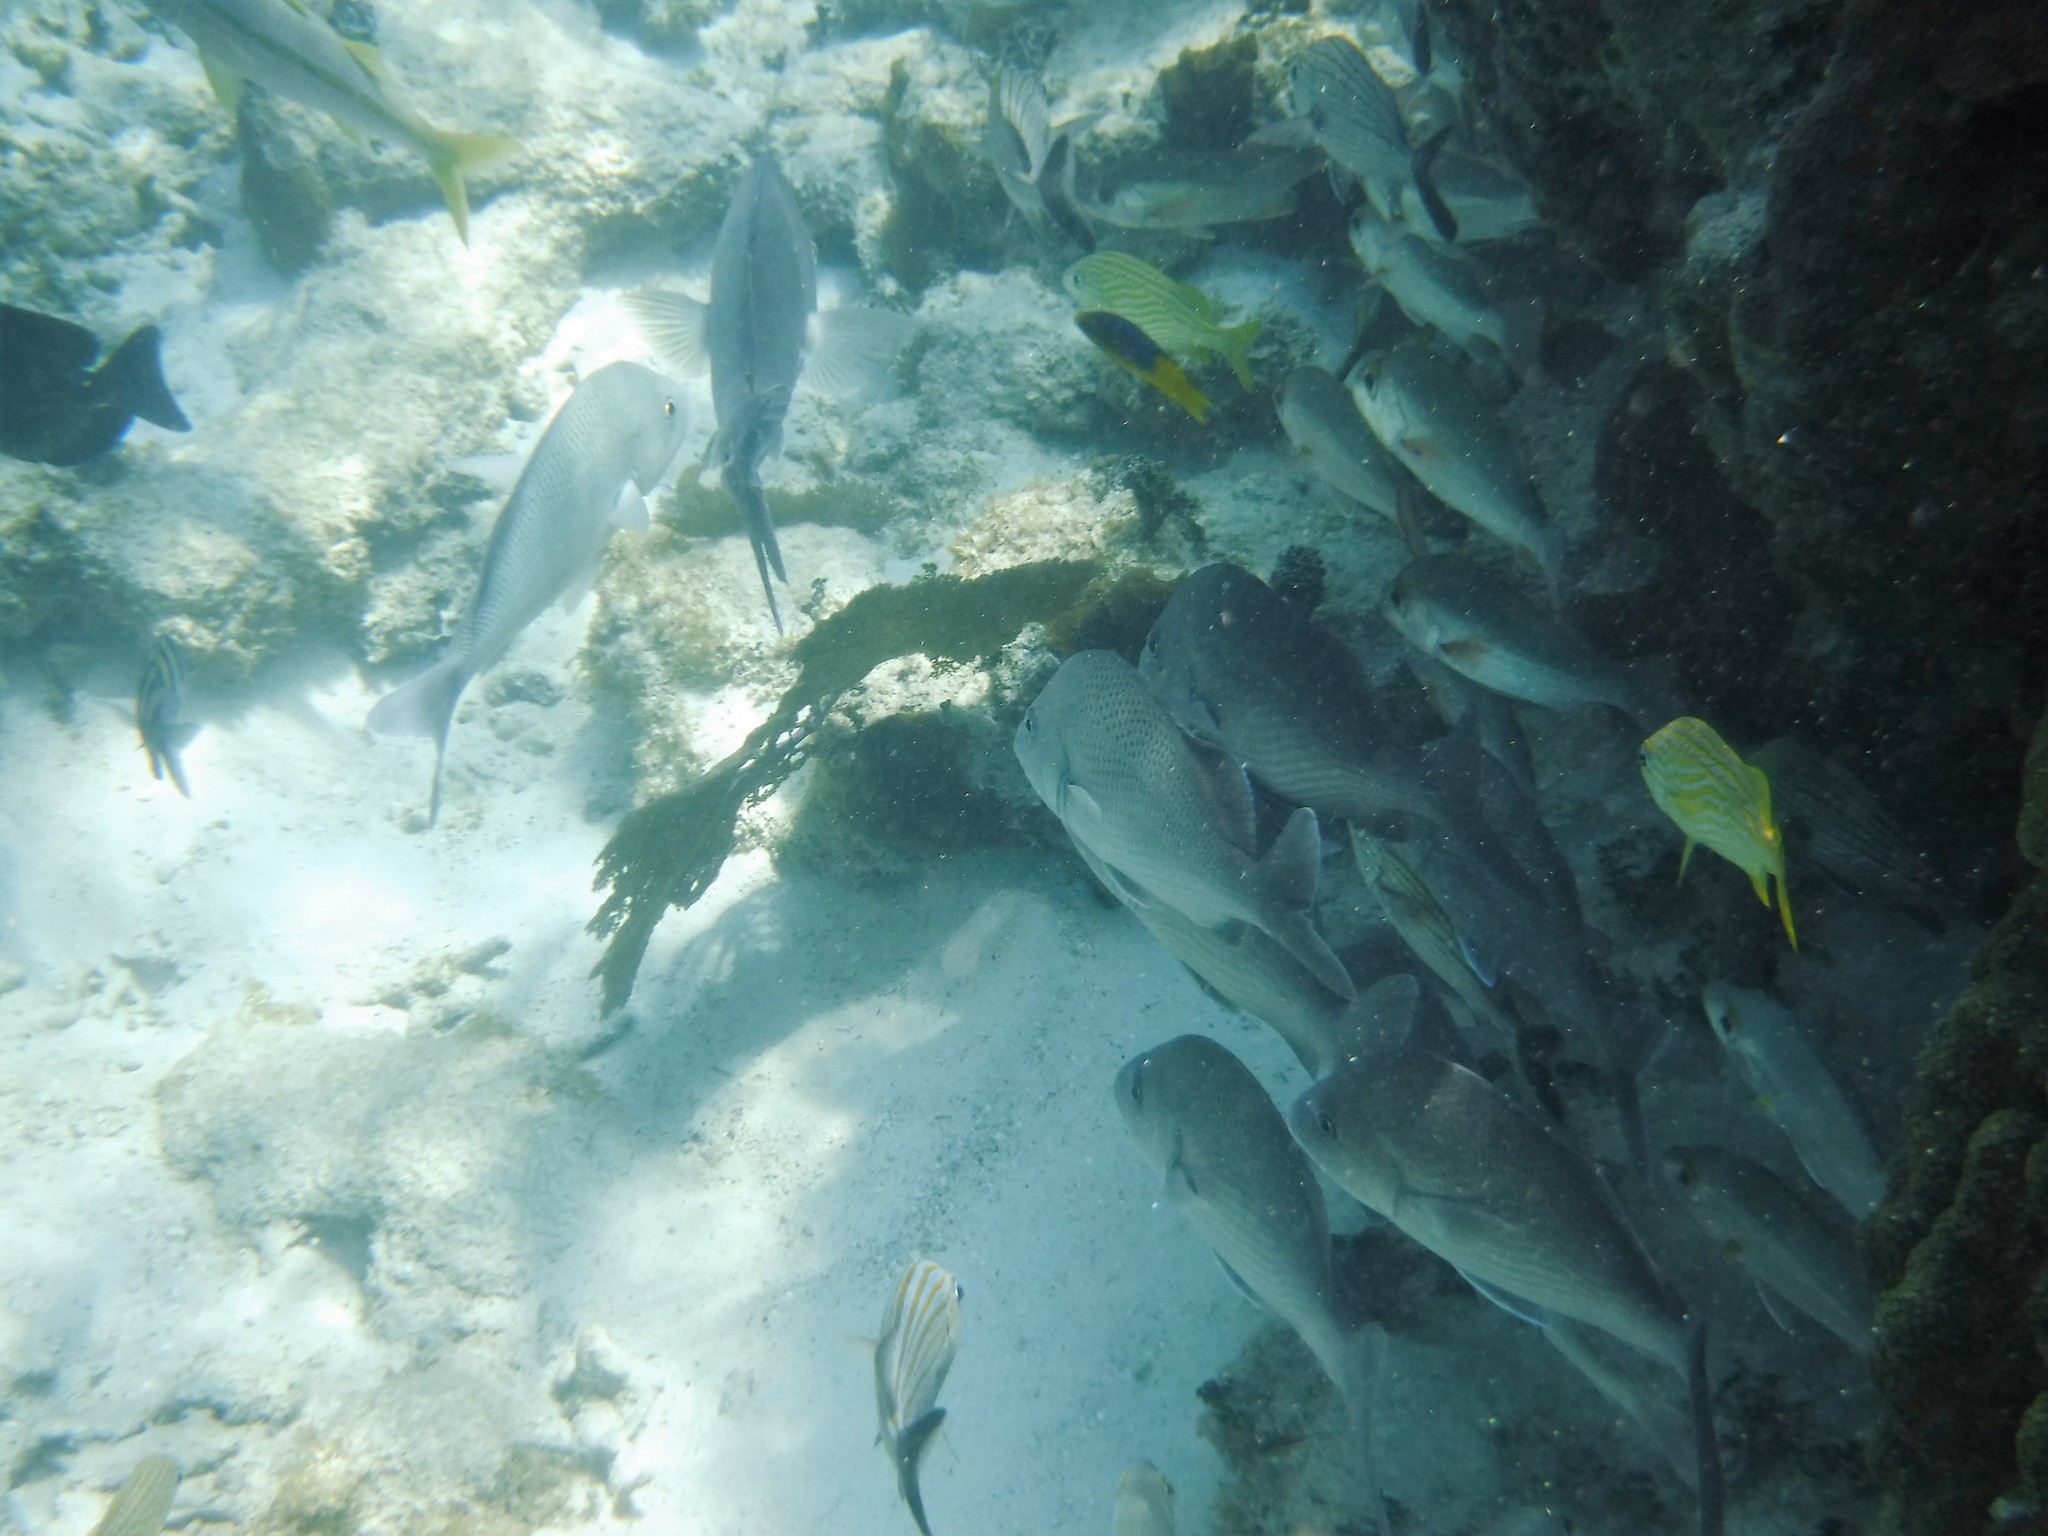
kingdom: Animalia
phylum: Chordata
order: Perciformes
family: Haemulidae
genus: Haemulon
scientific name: Haemulon flavolineatum
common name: French grunt
